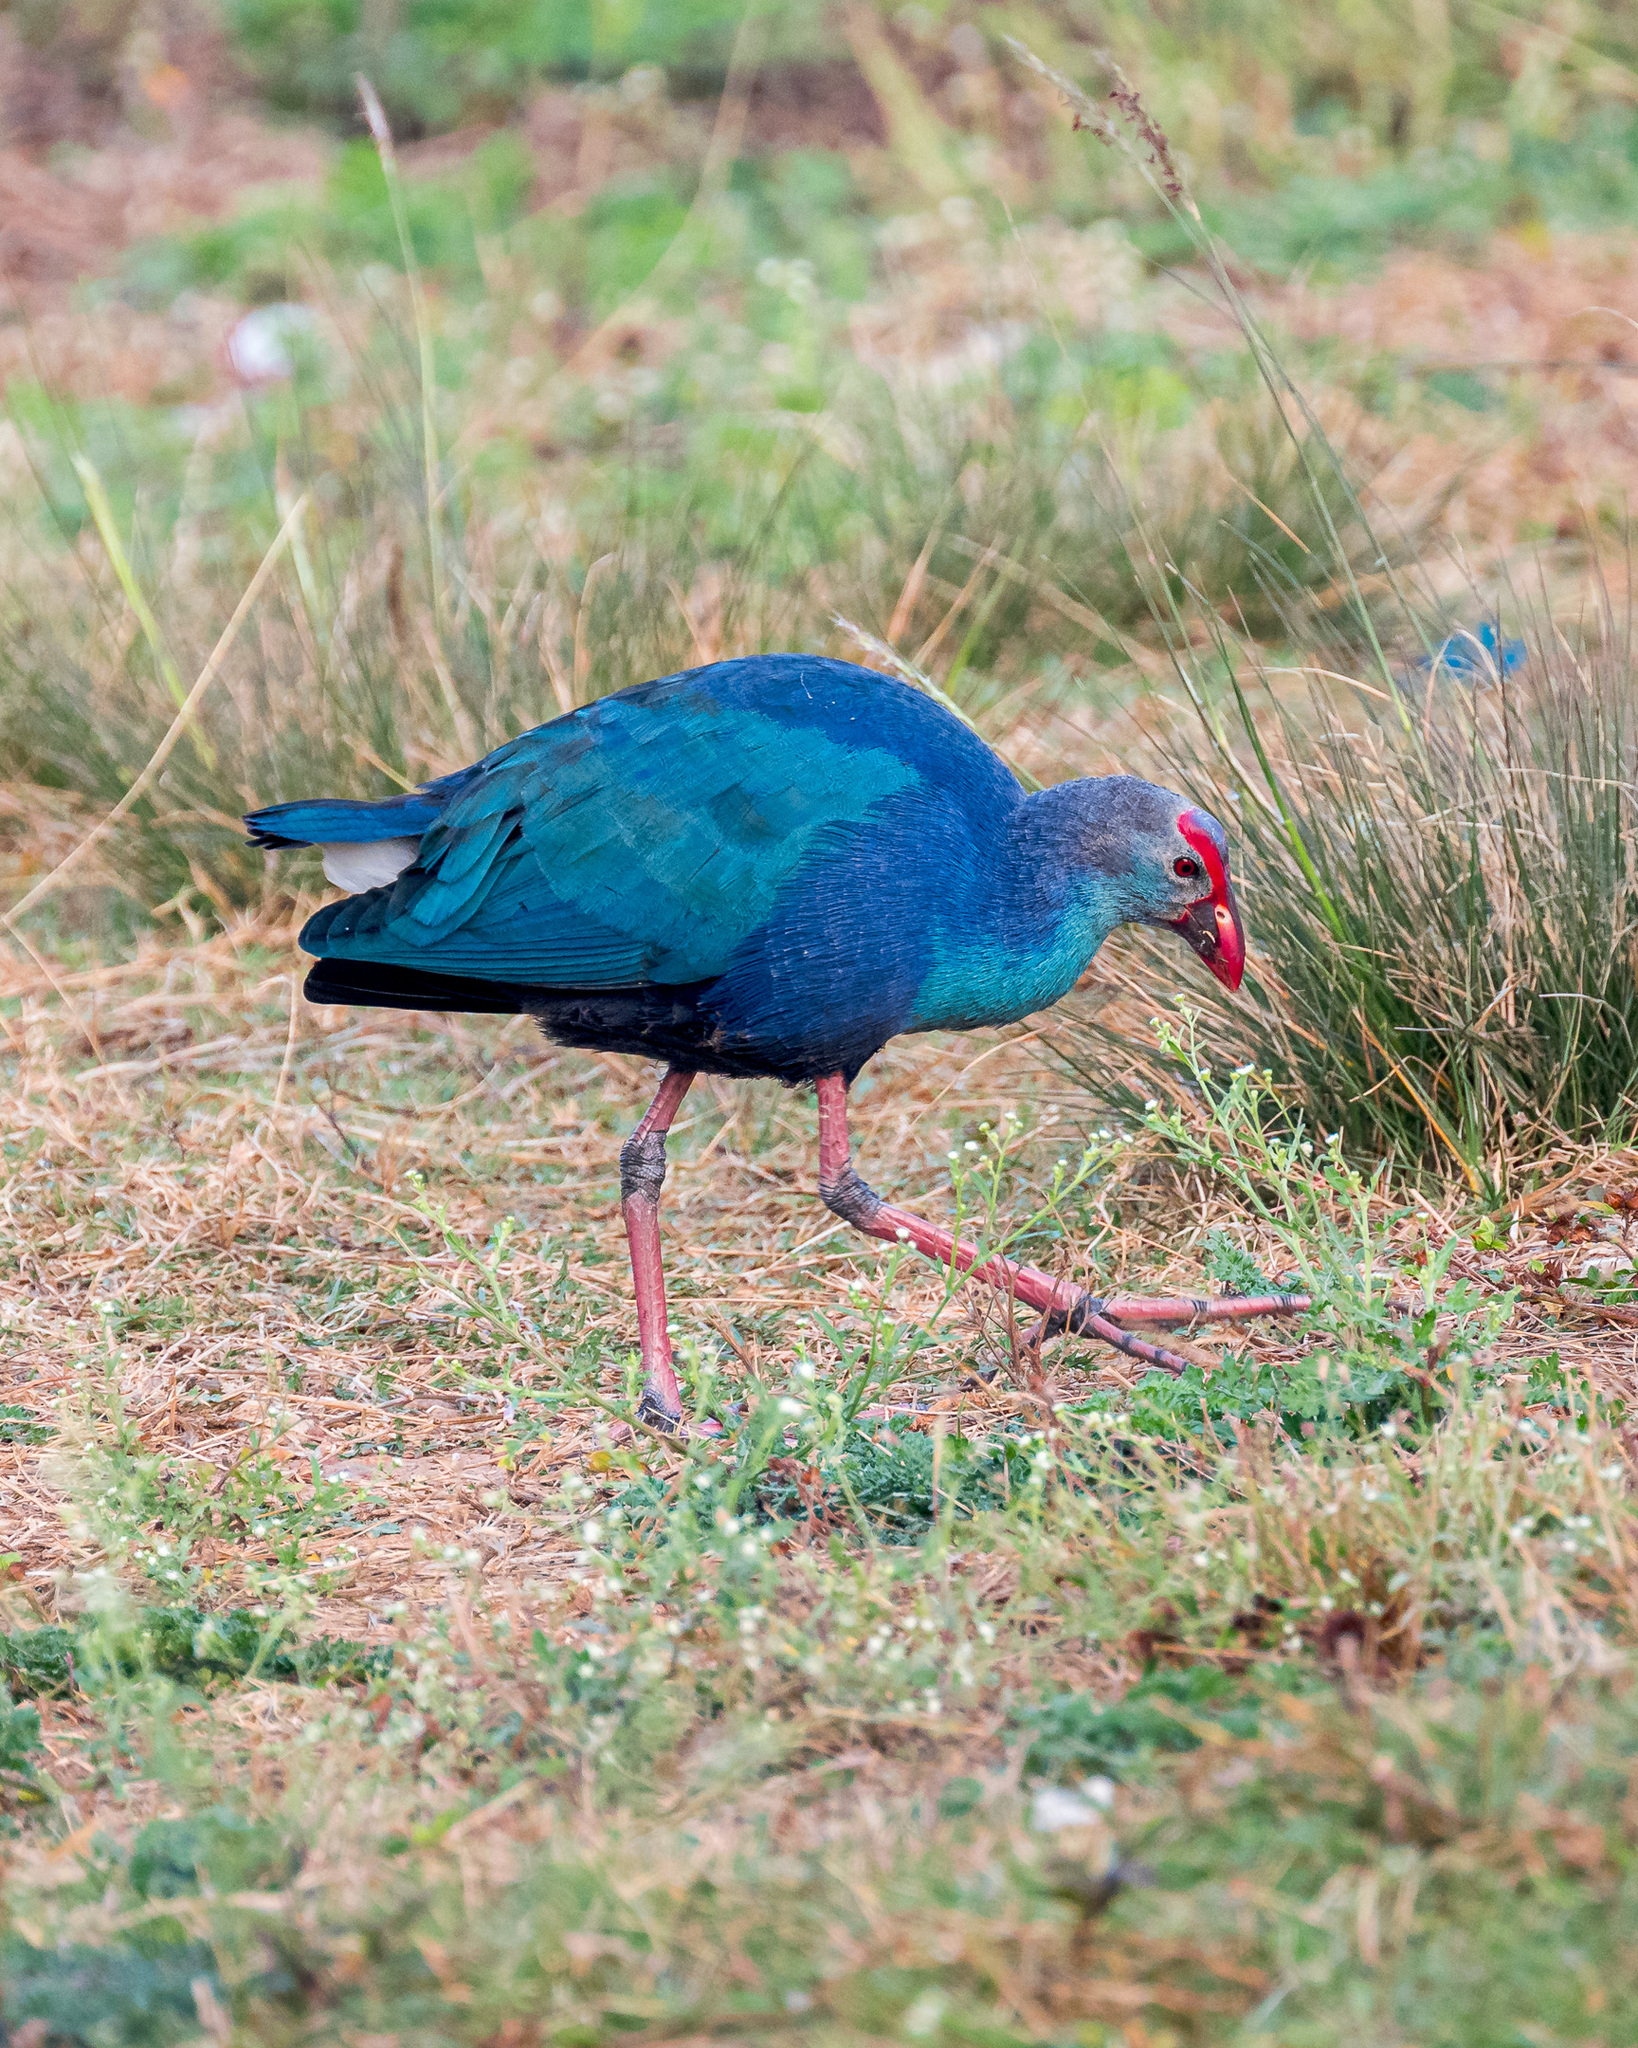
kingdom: Animalia
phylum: Chordata
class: Aves
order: Gruiformes
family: Rallidae
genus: Porphyrio
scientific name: Porphyrio porphyrio
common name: Purple swamphen
